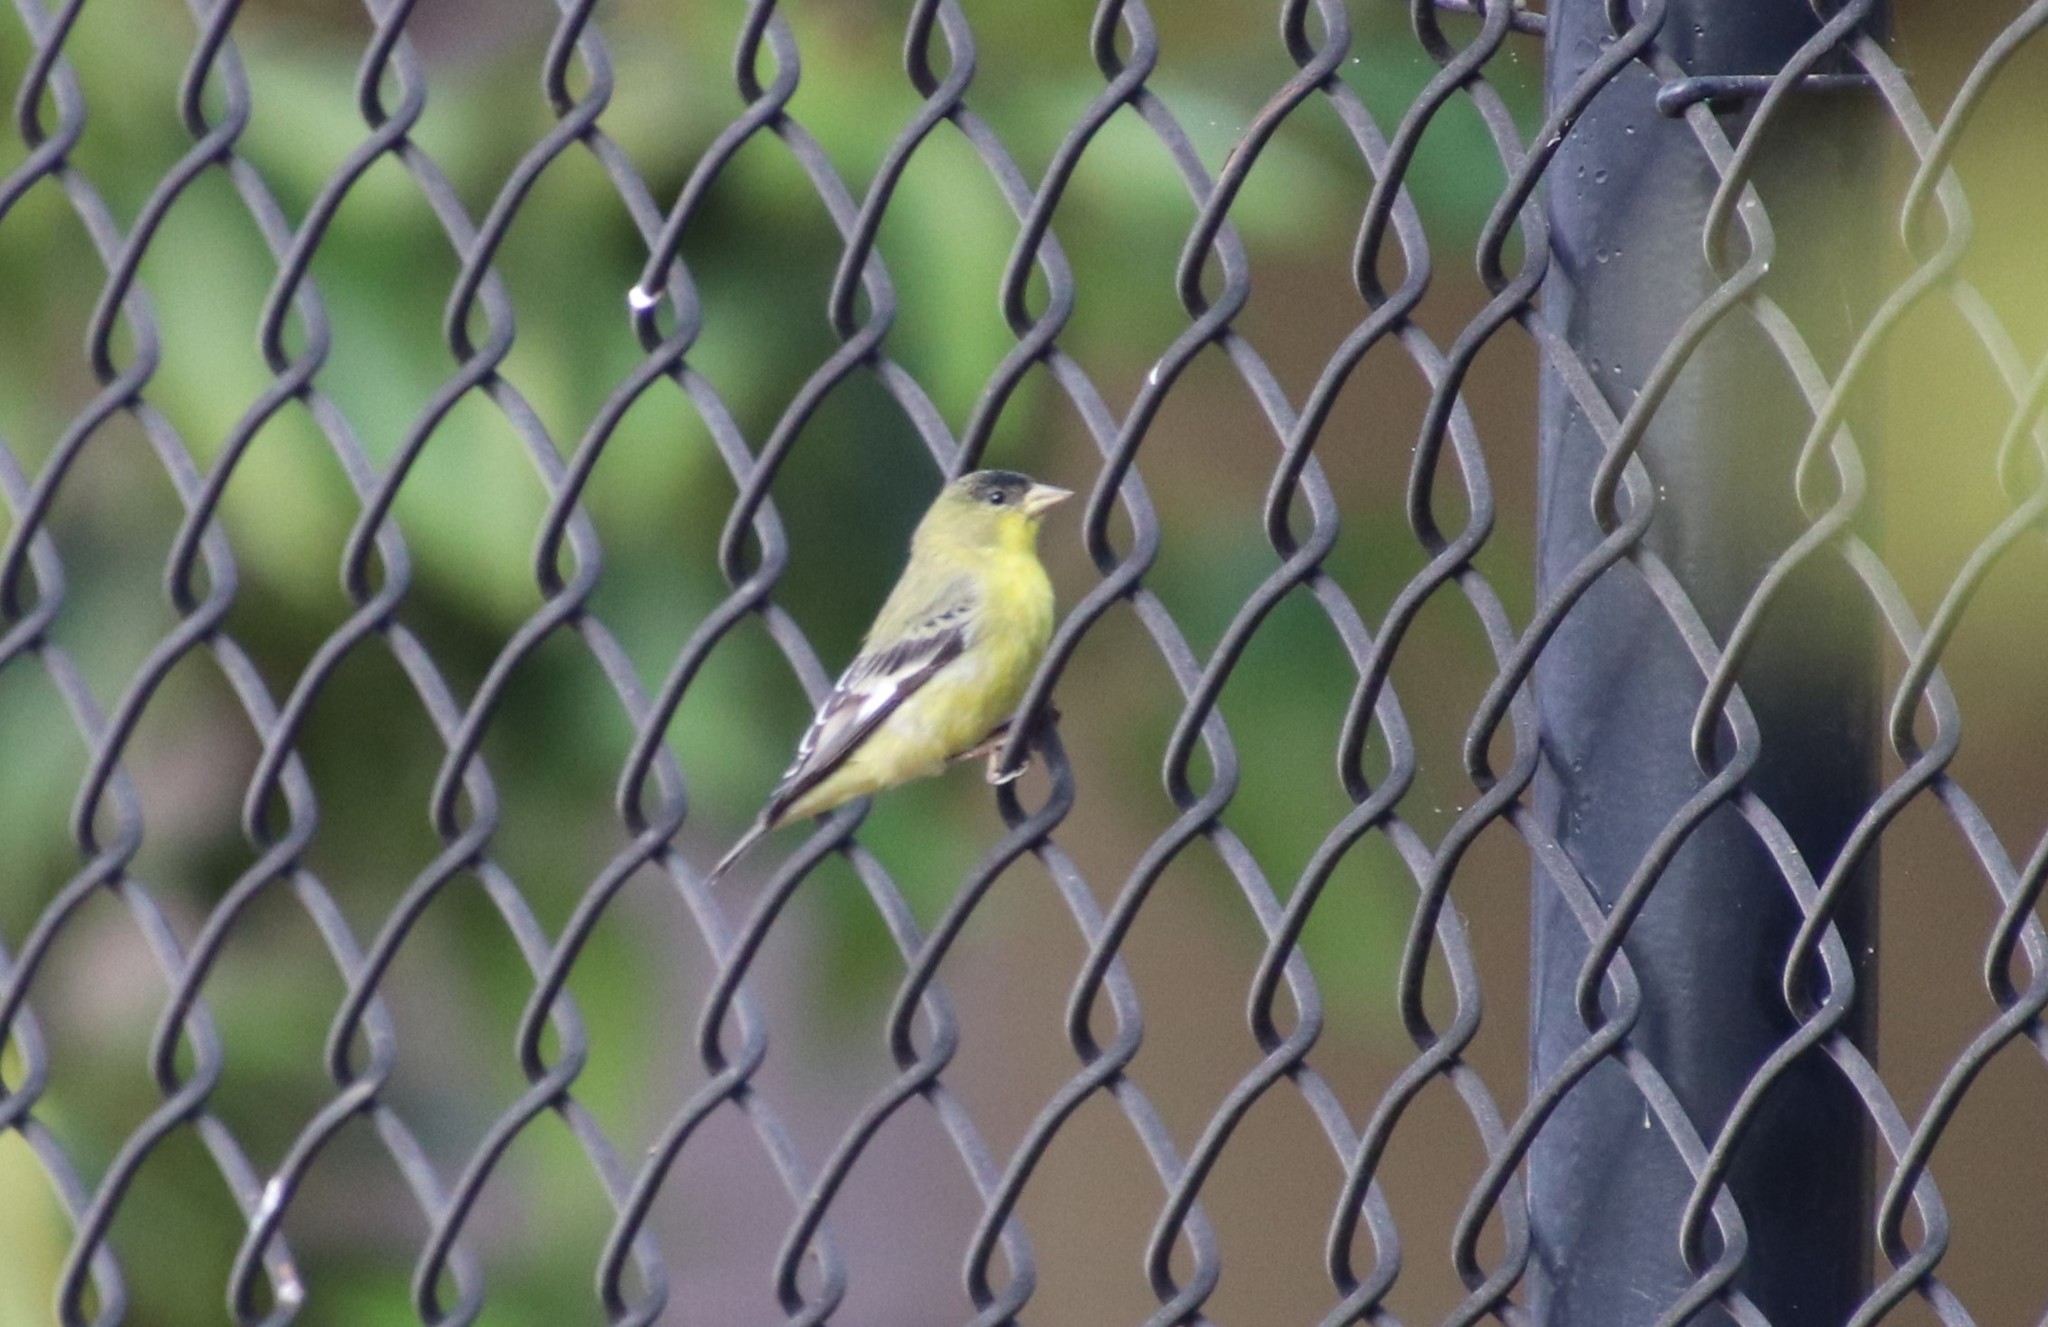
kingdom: Animalia
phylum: Chordata
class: Aves
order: Passeriformes
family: Fringillidae
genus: Spinus
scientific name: Spinus psaltria
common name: Lesser goldfinch
